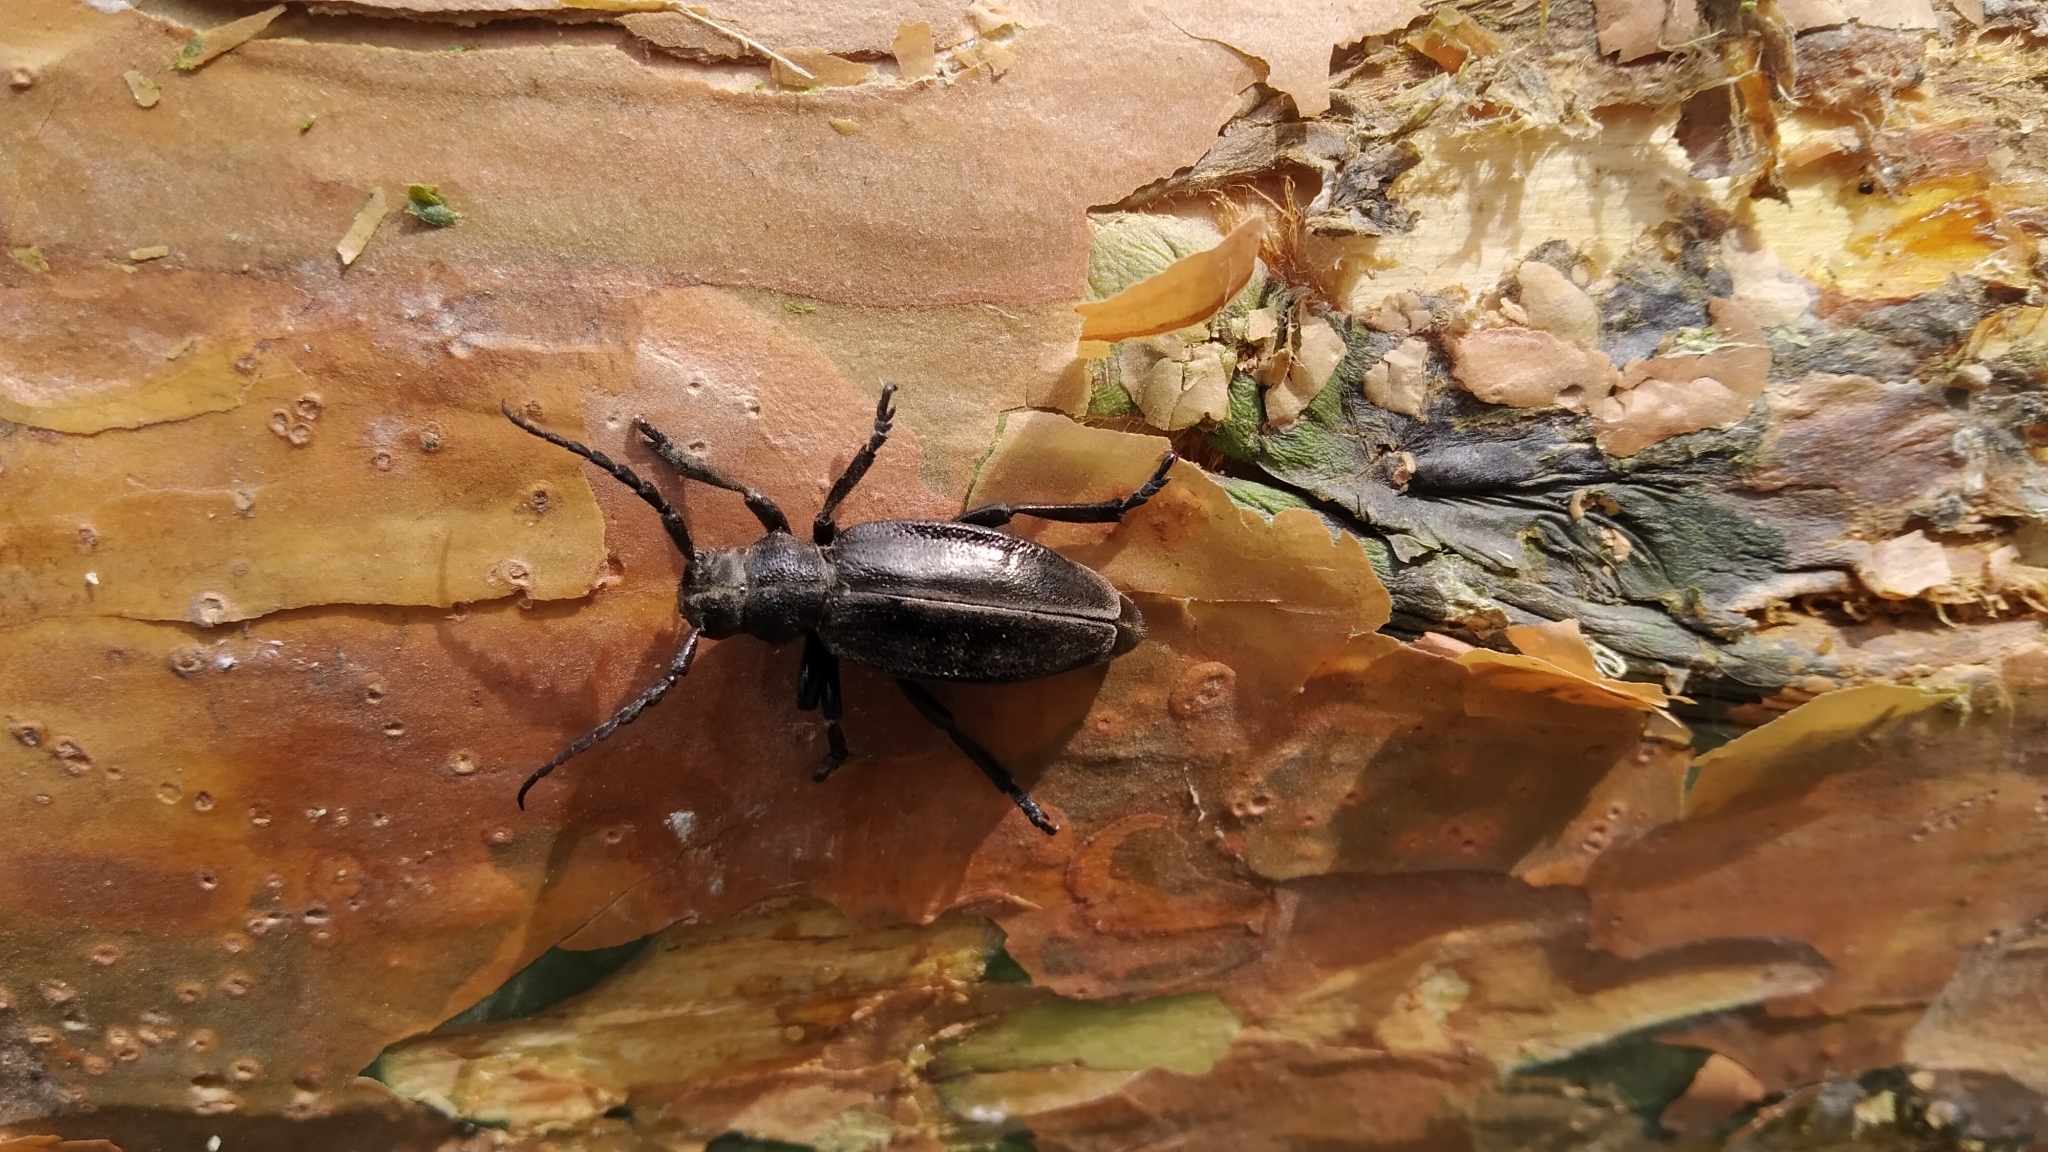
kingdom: Animalia
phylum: Arthropoda
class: Insecta
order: Coleoptera
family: Cerambycidae
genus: Dorcadion
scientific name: Dorcadion carinatum
